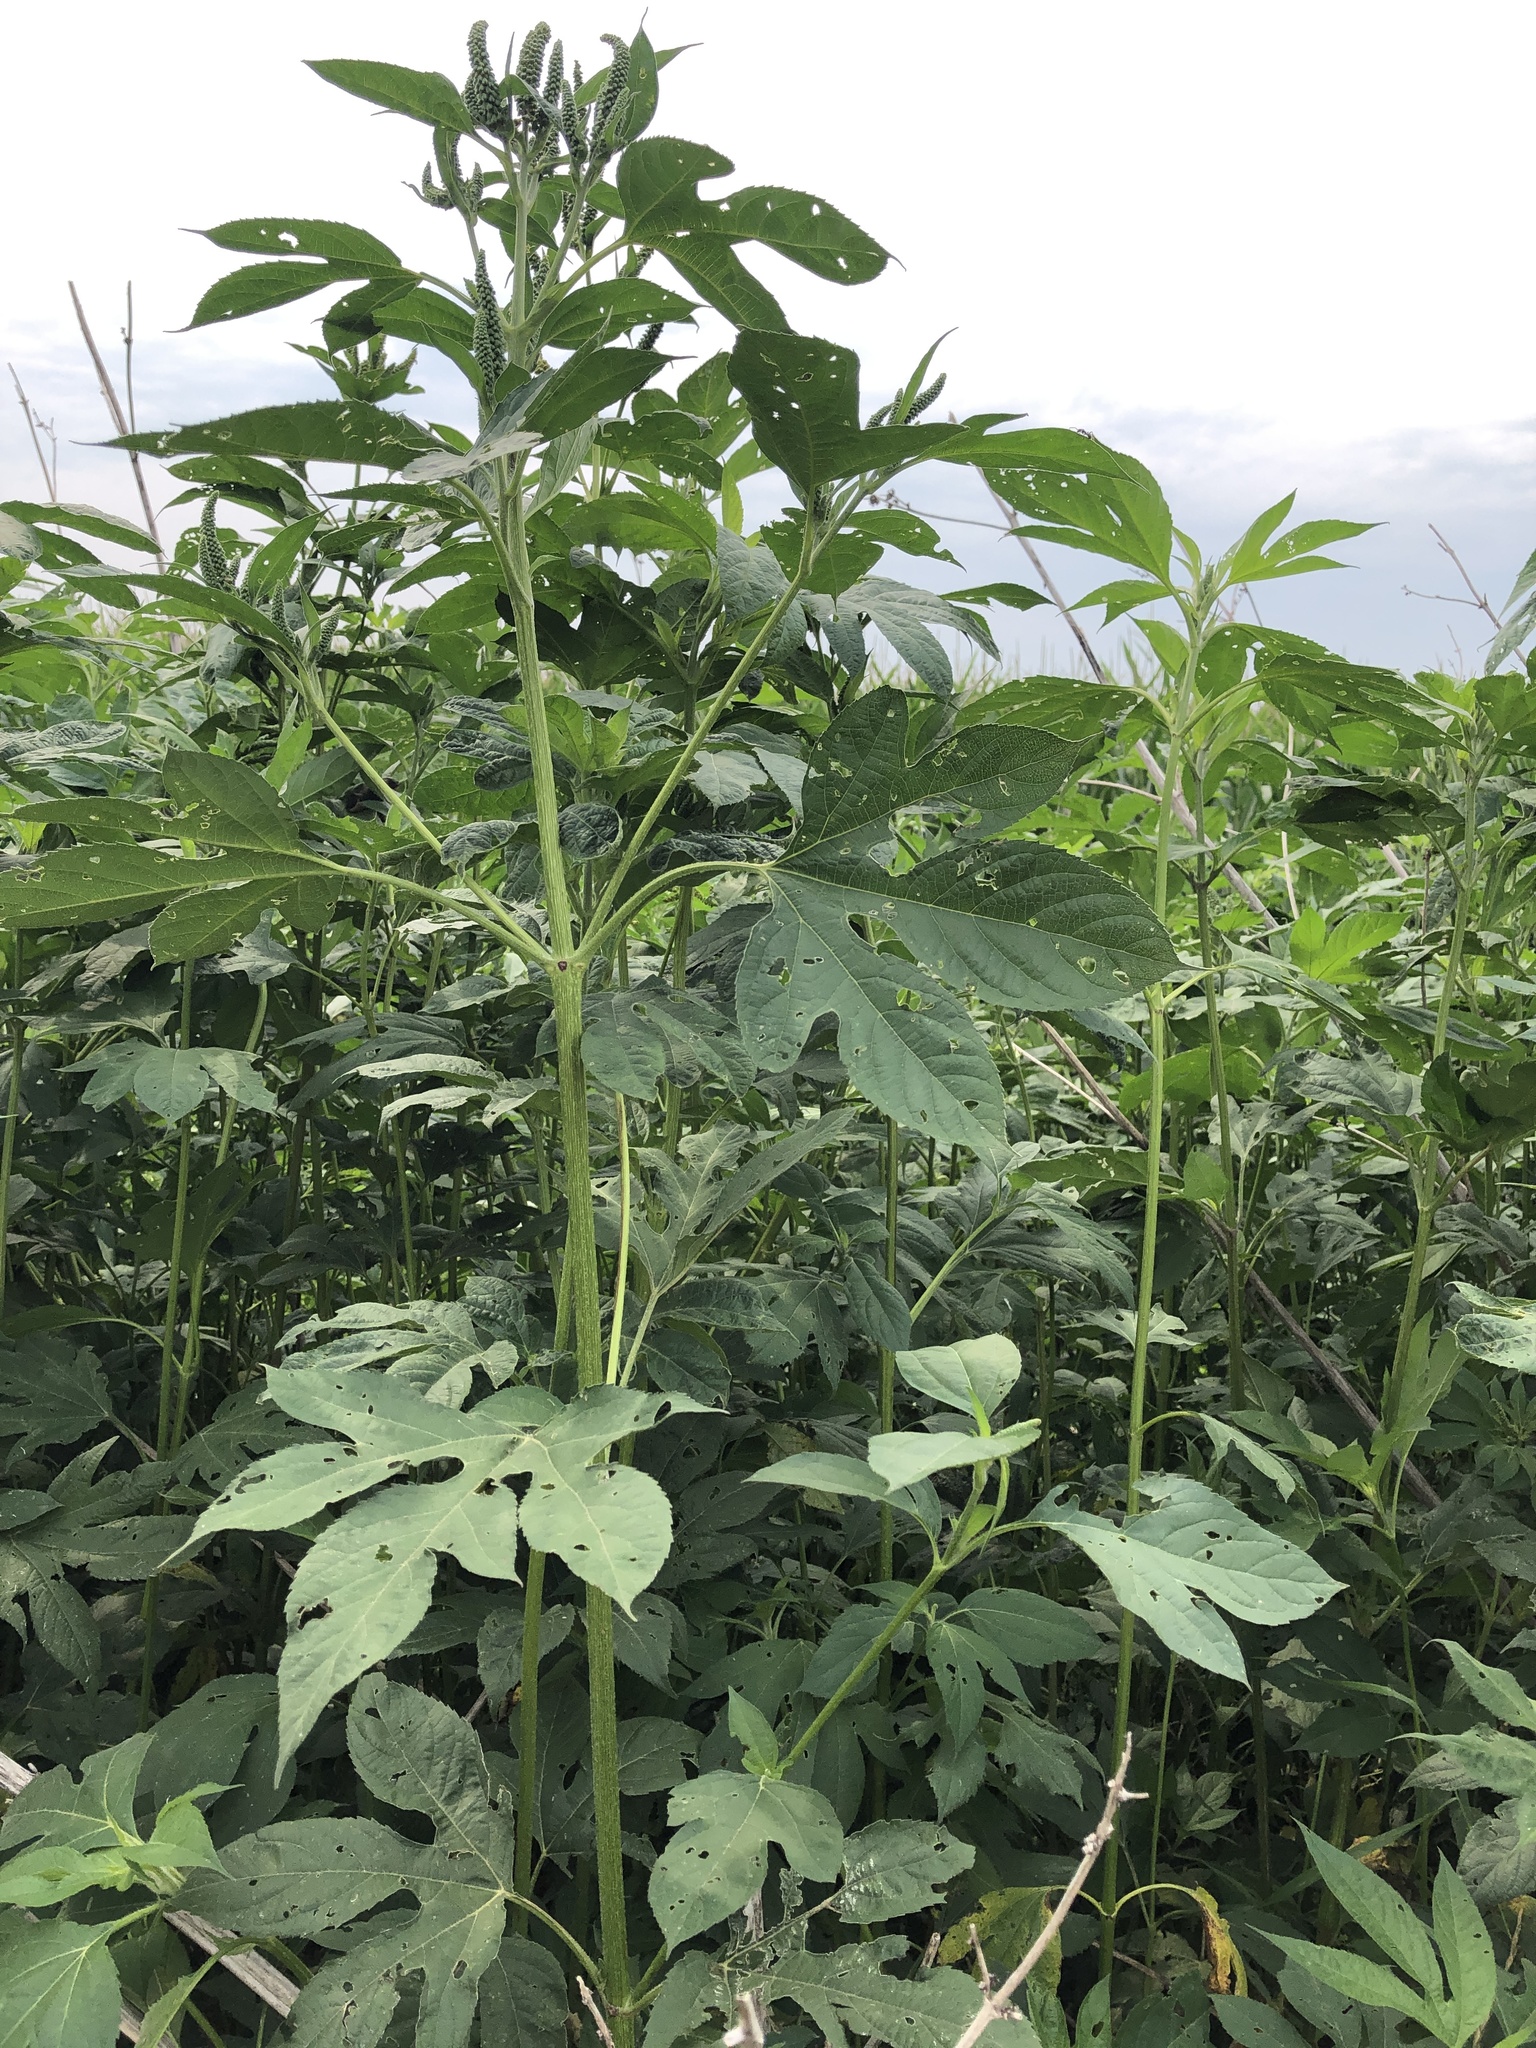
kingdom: Plantae
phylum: Tracheophyta
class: Magnoliopsida
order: Asterales
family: Asteraceae
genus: Ambrosia
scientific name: Ambrosia trifida
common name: Giant ragweed
